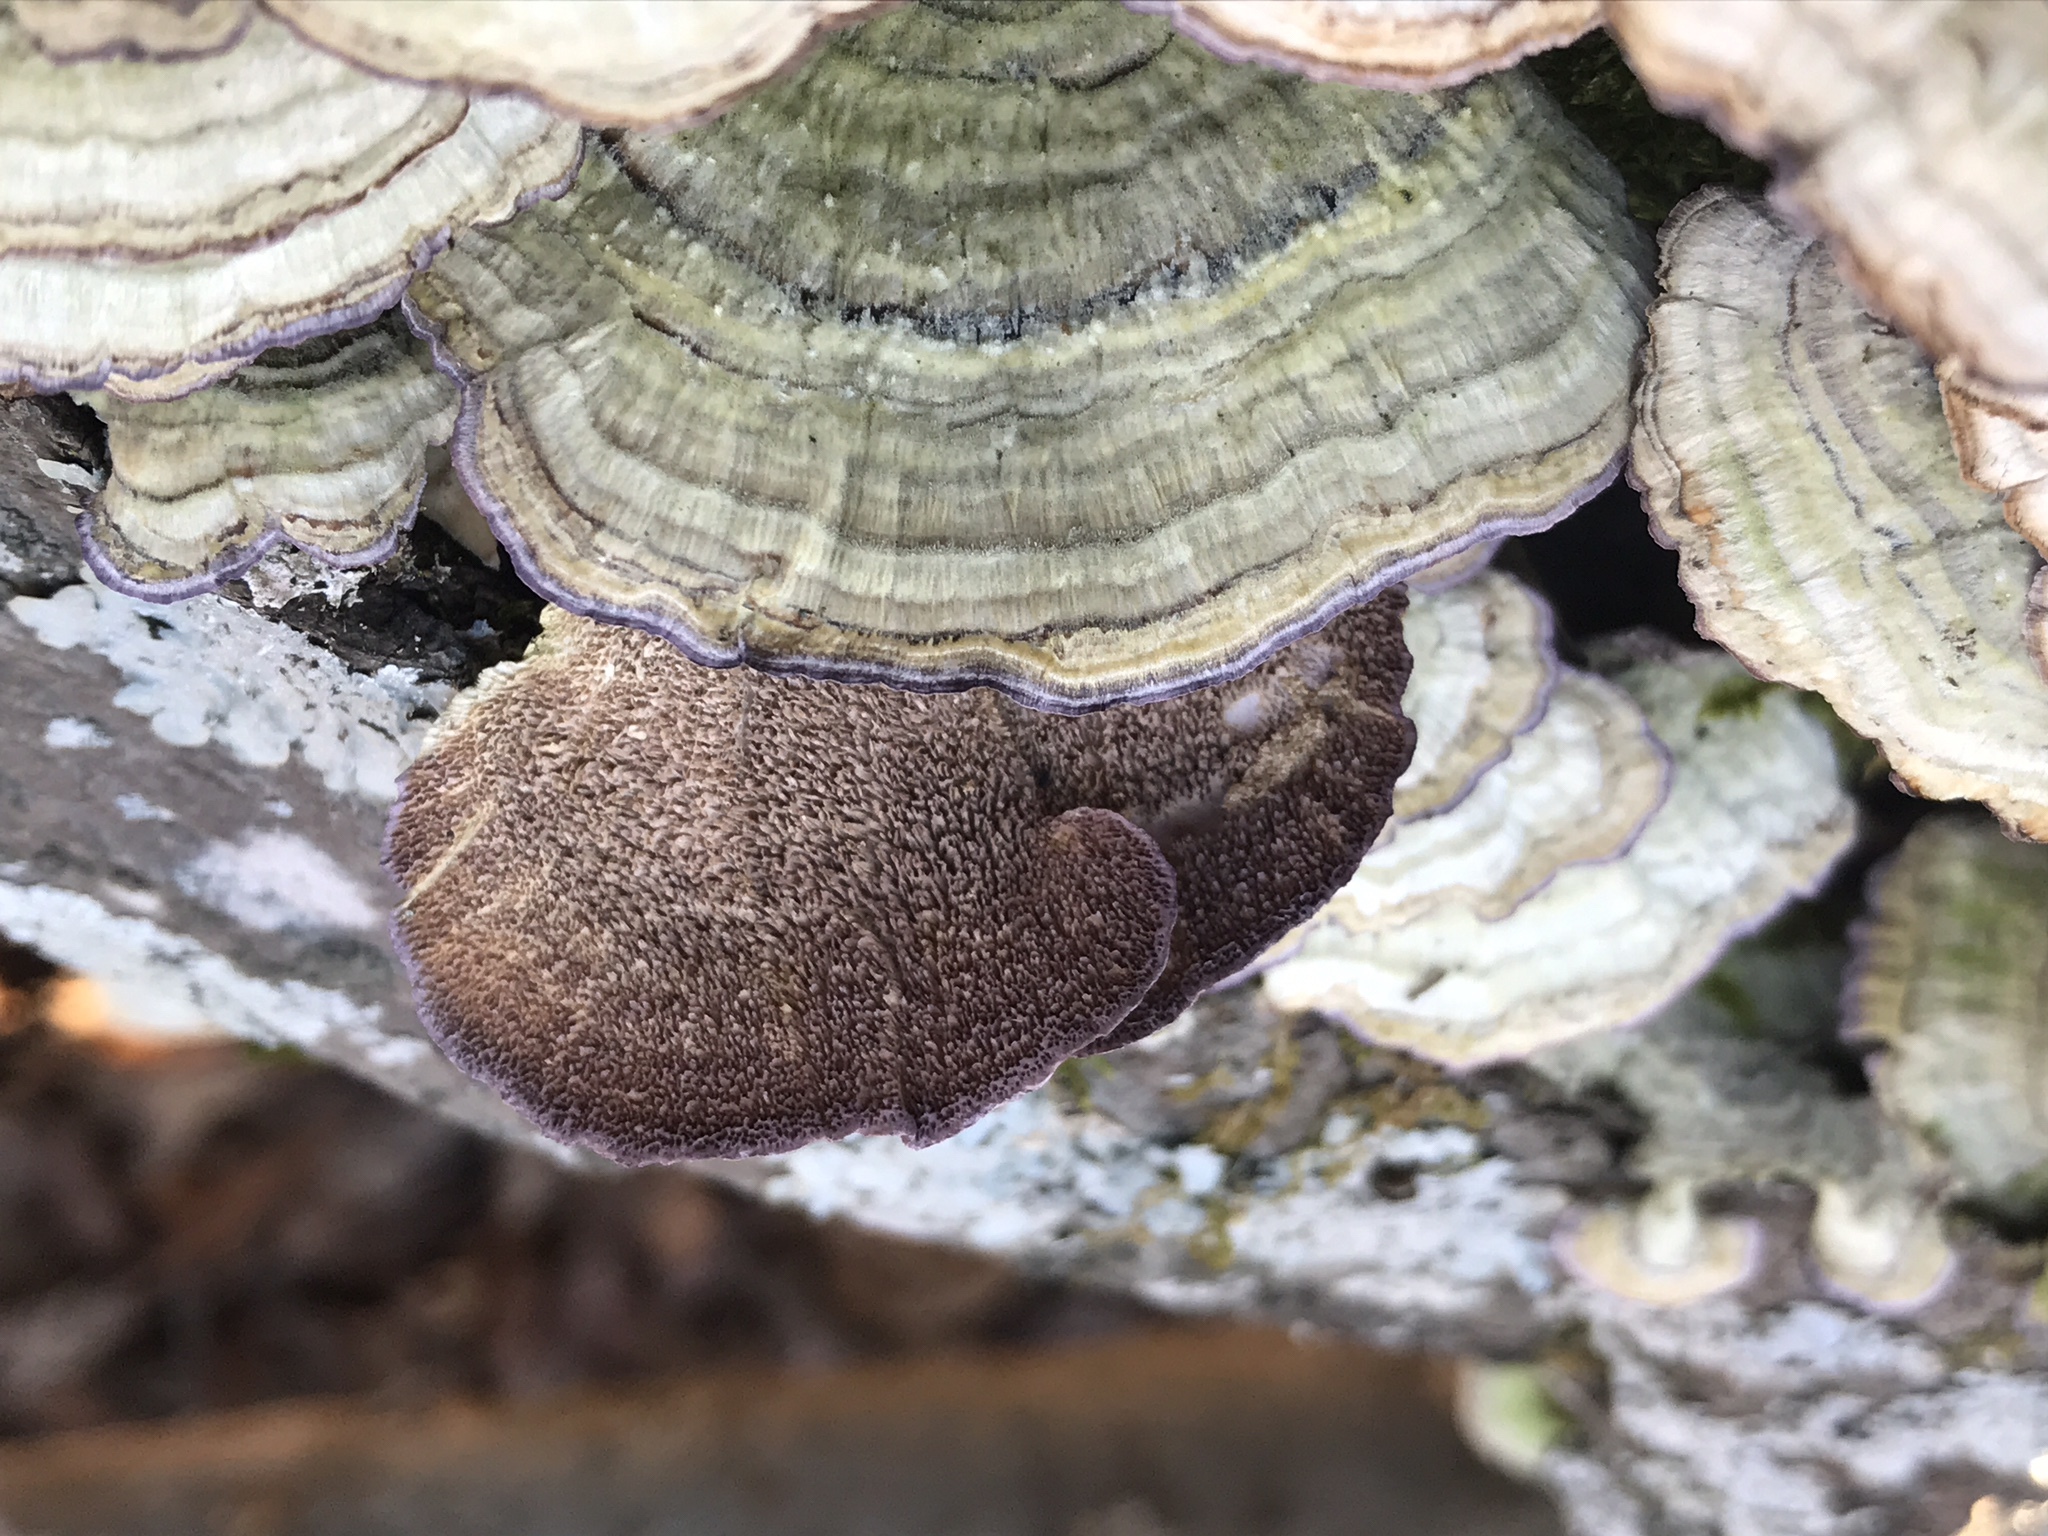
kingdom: Fungi
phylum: Basidiomycota
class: Agaricomycetes
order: Hymenochaetales
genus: Trichaptum
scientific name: Trichaptum biforme
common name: Violet-toothed polypore
